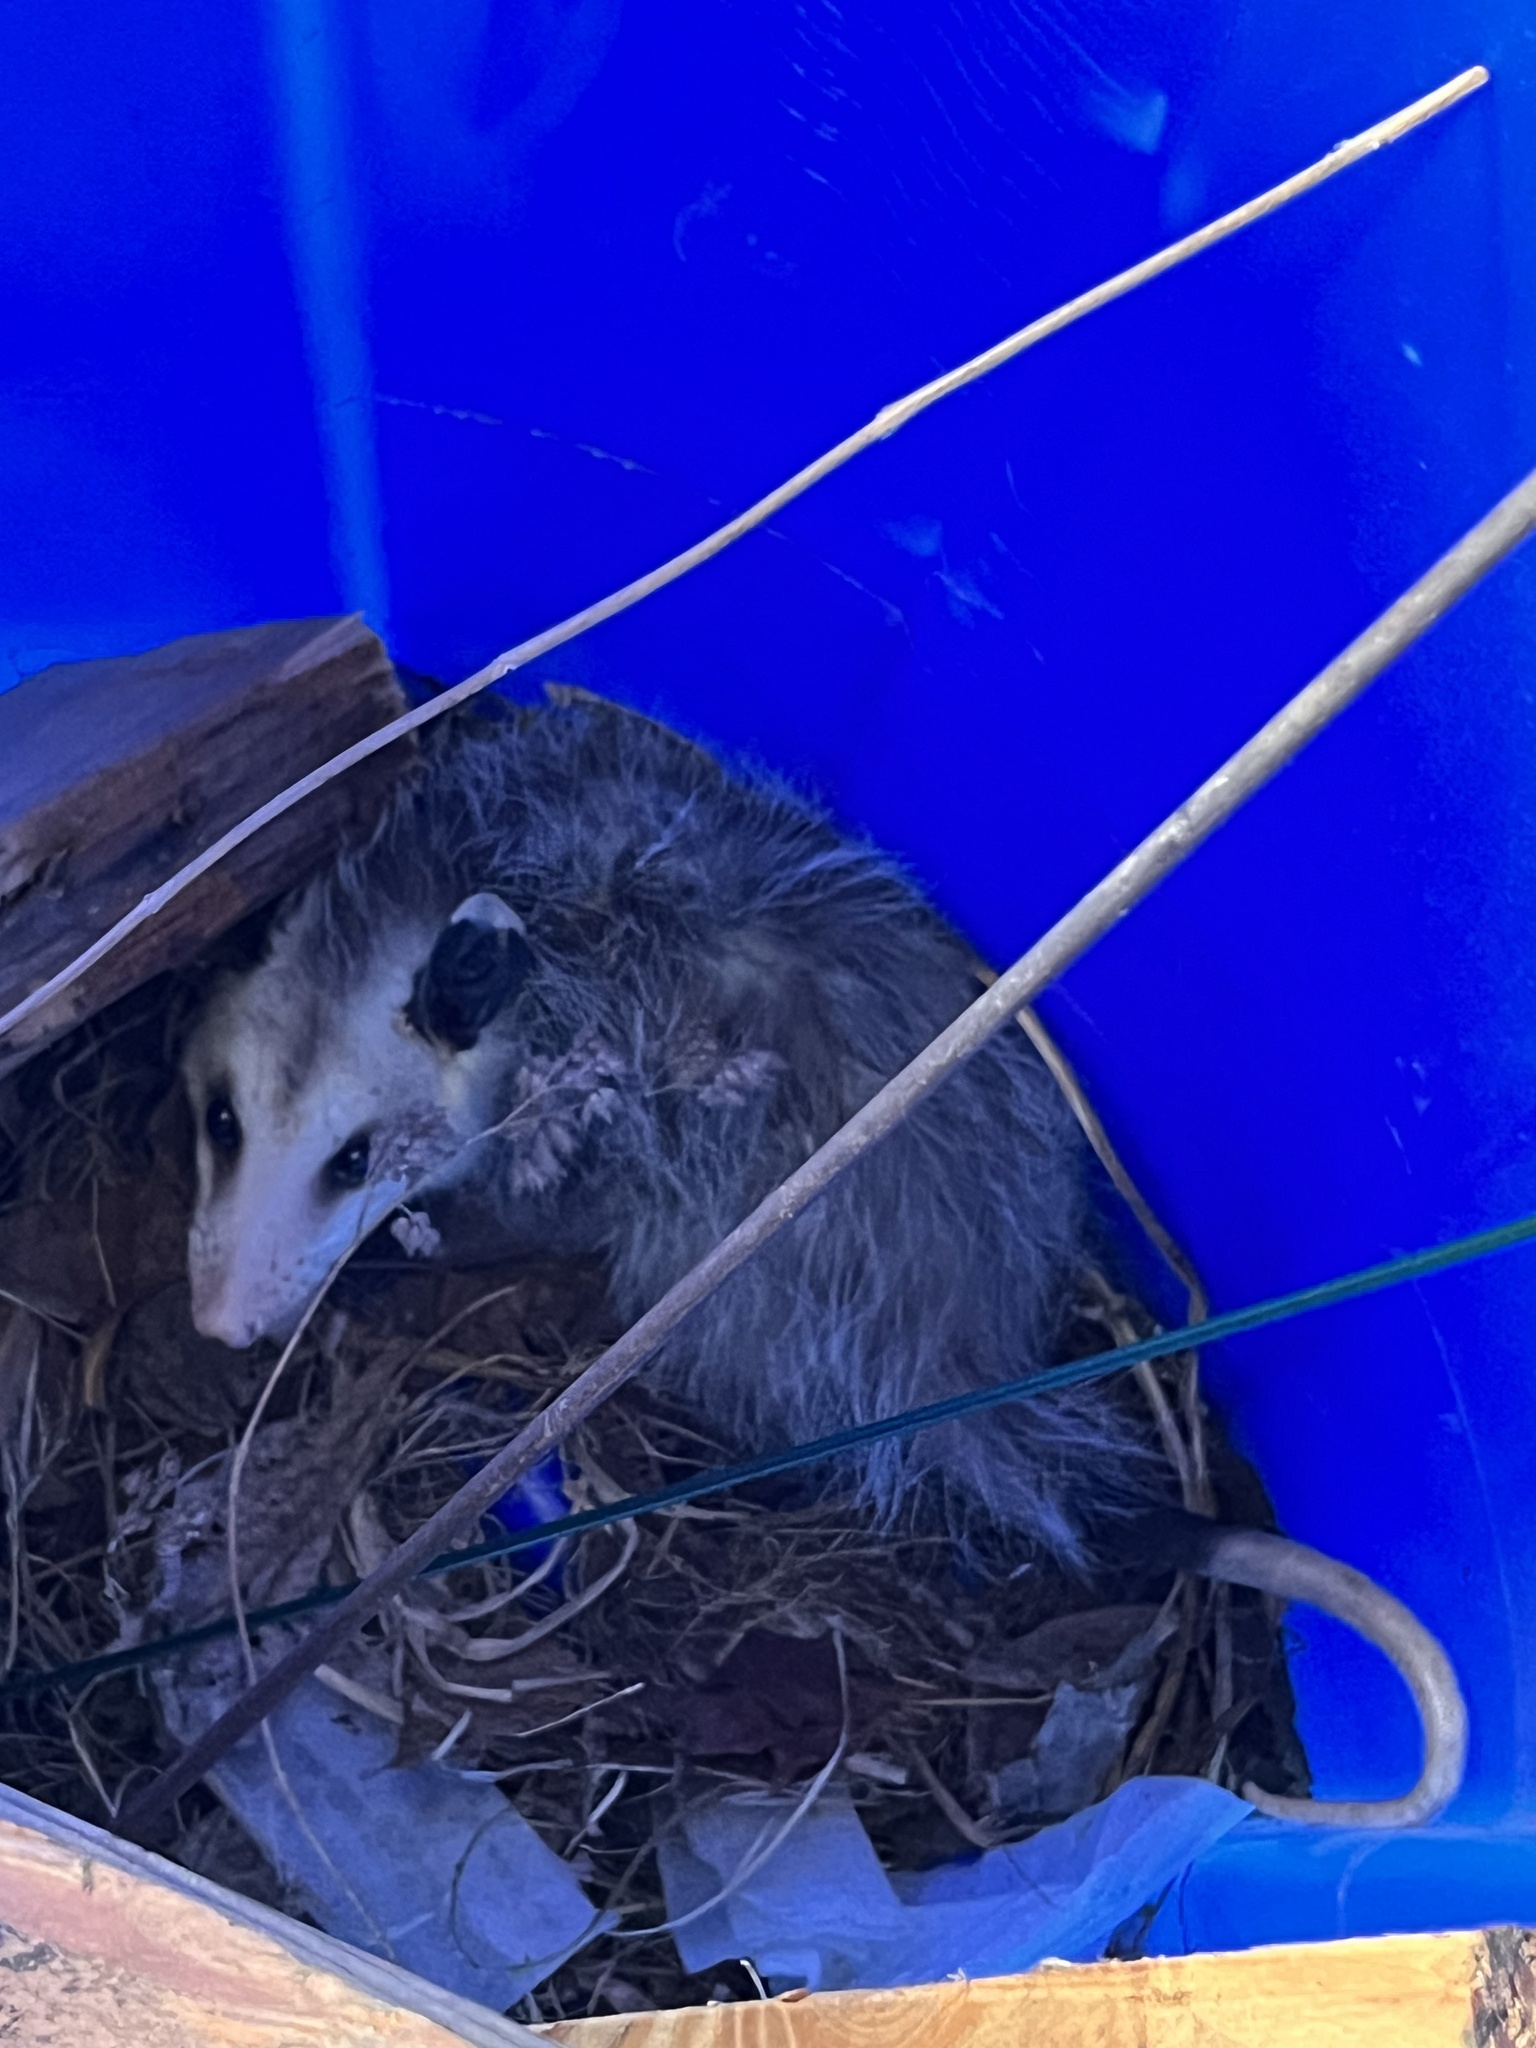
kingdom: Animalia
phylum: Chordata
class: Mammalia
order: Didelphimorphia
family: Didelphidae
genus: Didelphis
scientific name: Didelphis virginiana
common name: Virginia opossum
